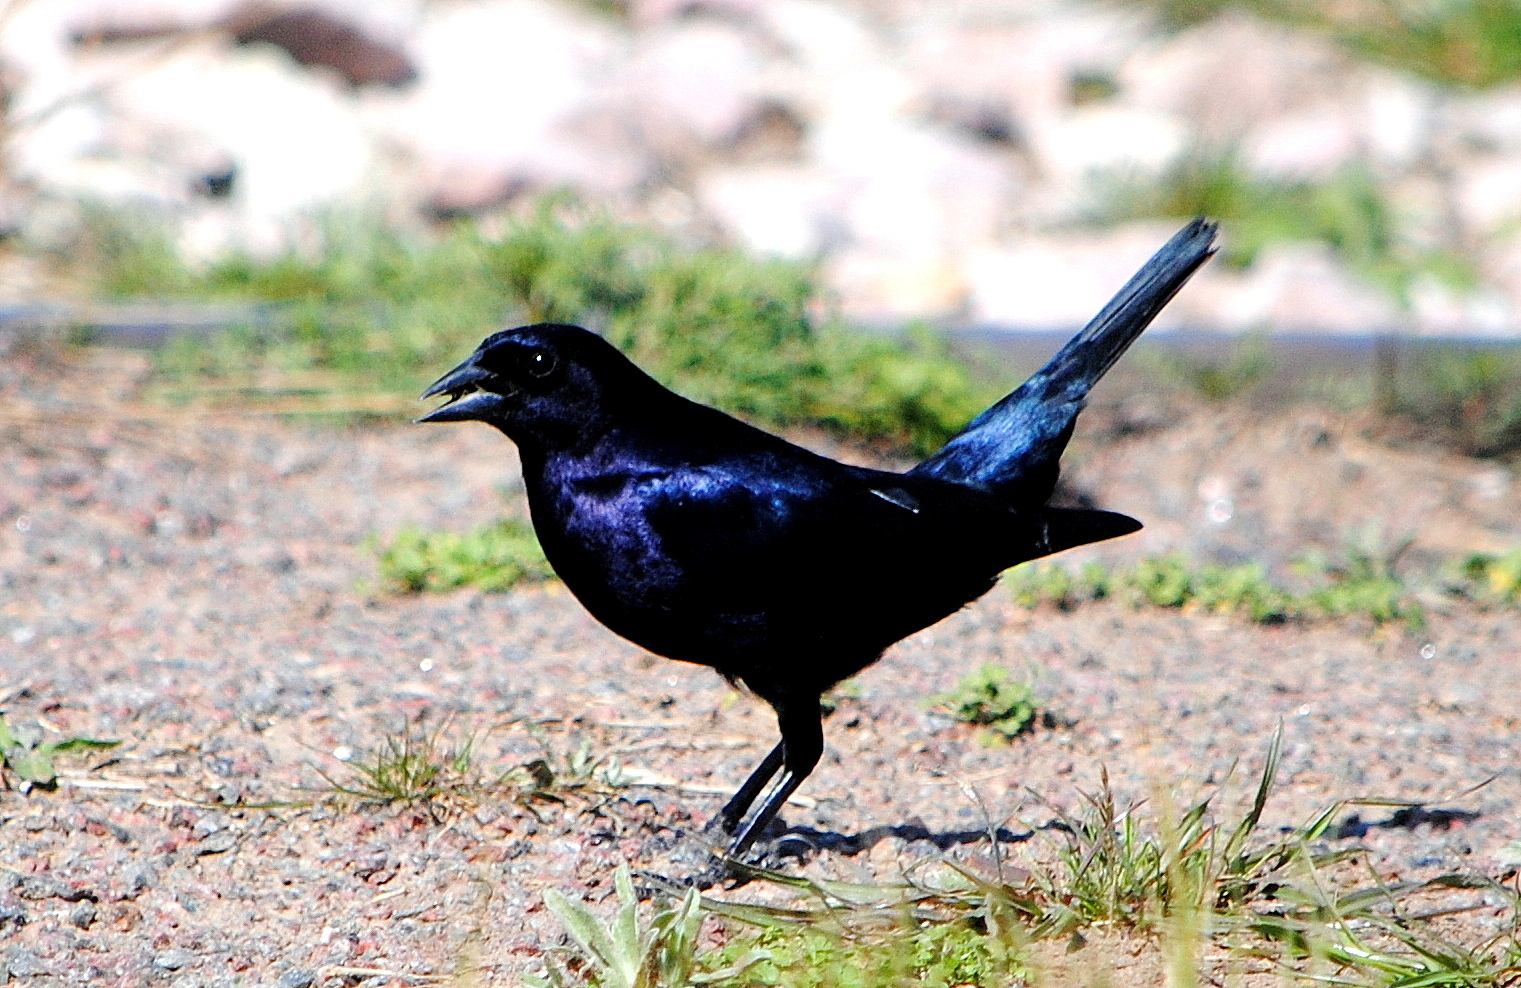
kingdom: Animalia
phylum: Chordata
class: Aves
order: Passeriformes
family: Icteridae
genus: Molothrus
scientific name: Molothrus bonariensis
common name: Shiny cowbird
